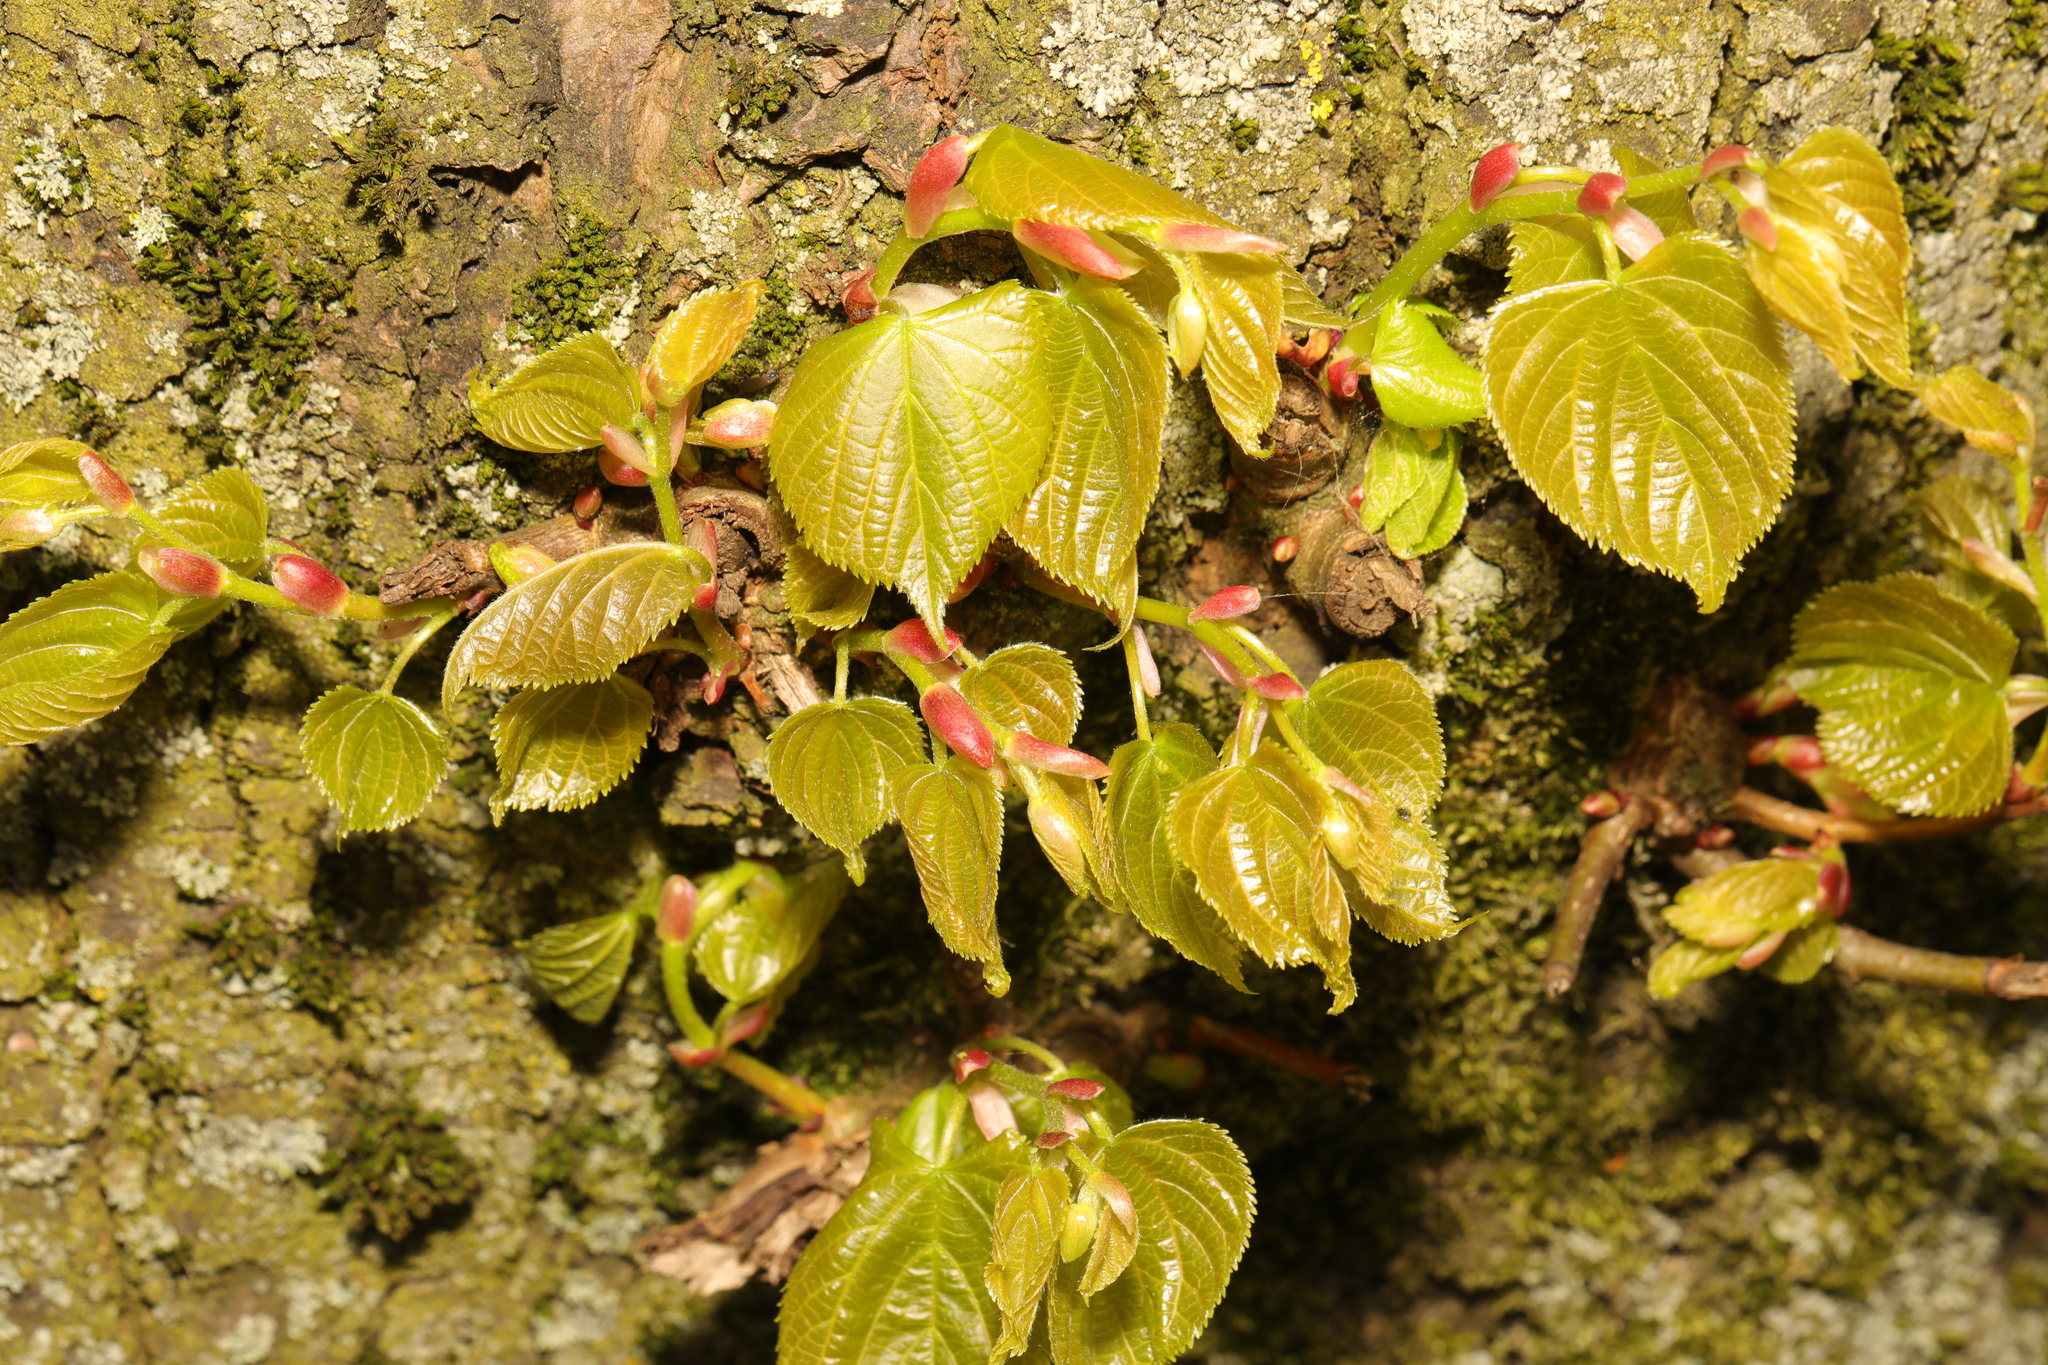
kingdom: Plantae
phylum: Tracheophyta
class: Magnoliopsida
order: Malvales
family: Malvaceae
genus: Tilia
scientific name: Tilia europaea
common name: European linden
